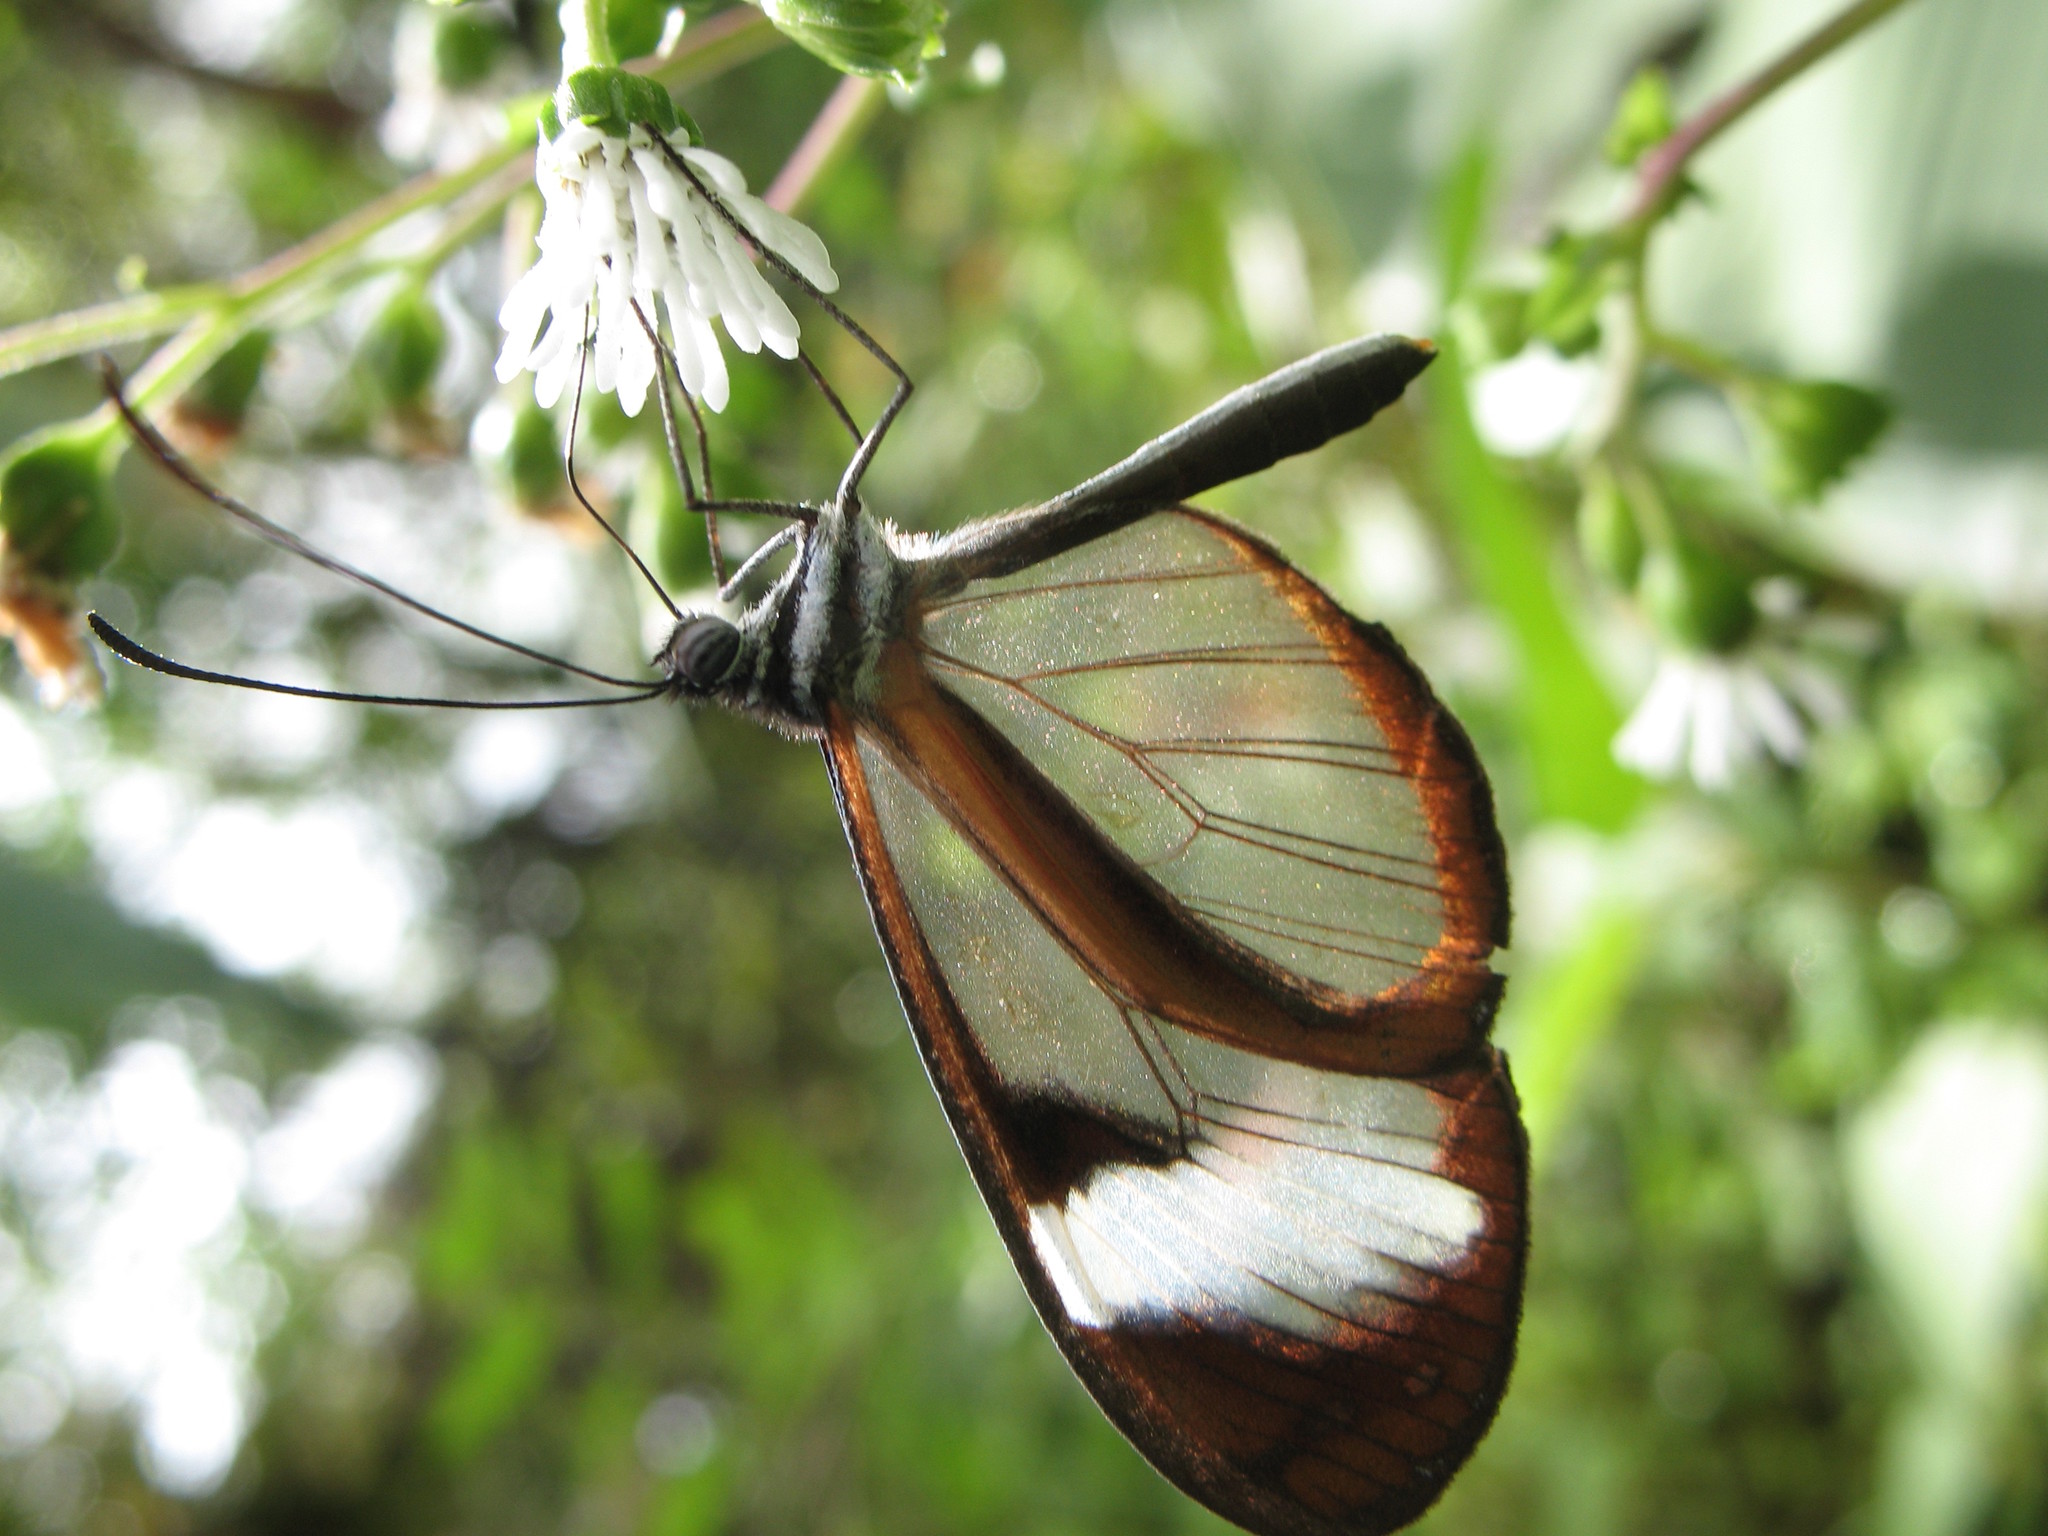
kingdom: Animalia
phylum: Arthropoda
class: Insecta
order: Lepidoptera
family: Nymphalidae
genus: Oleria
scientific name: Oleria padilla
